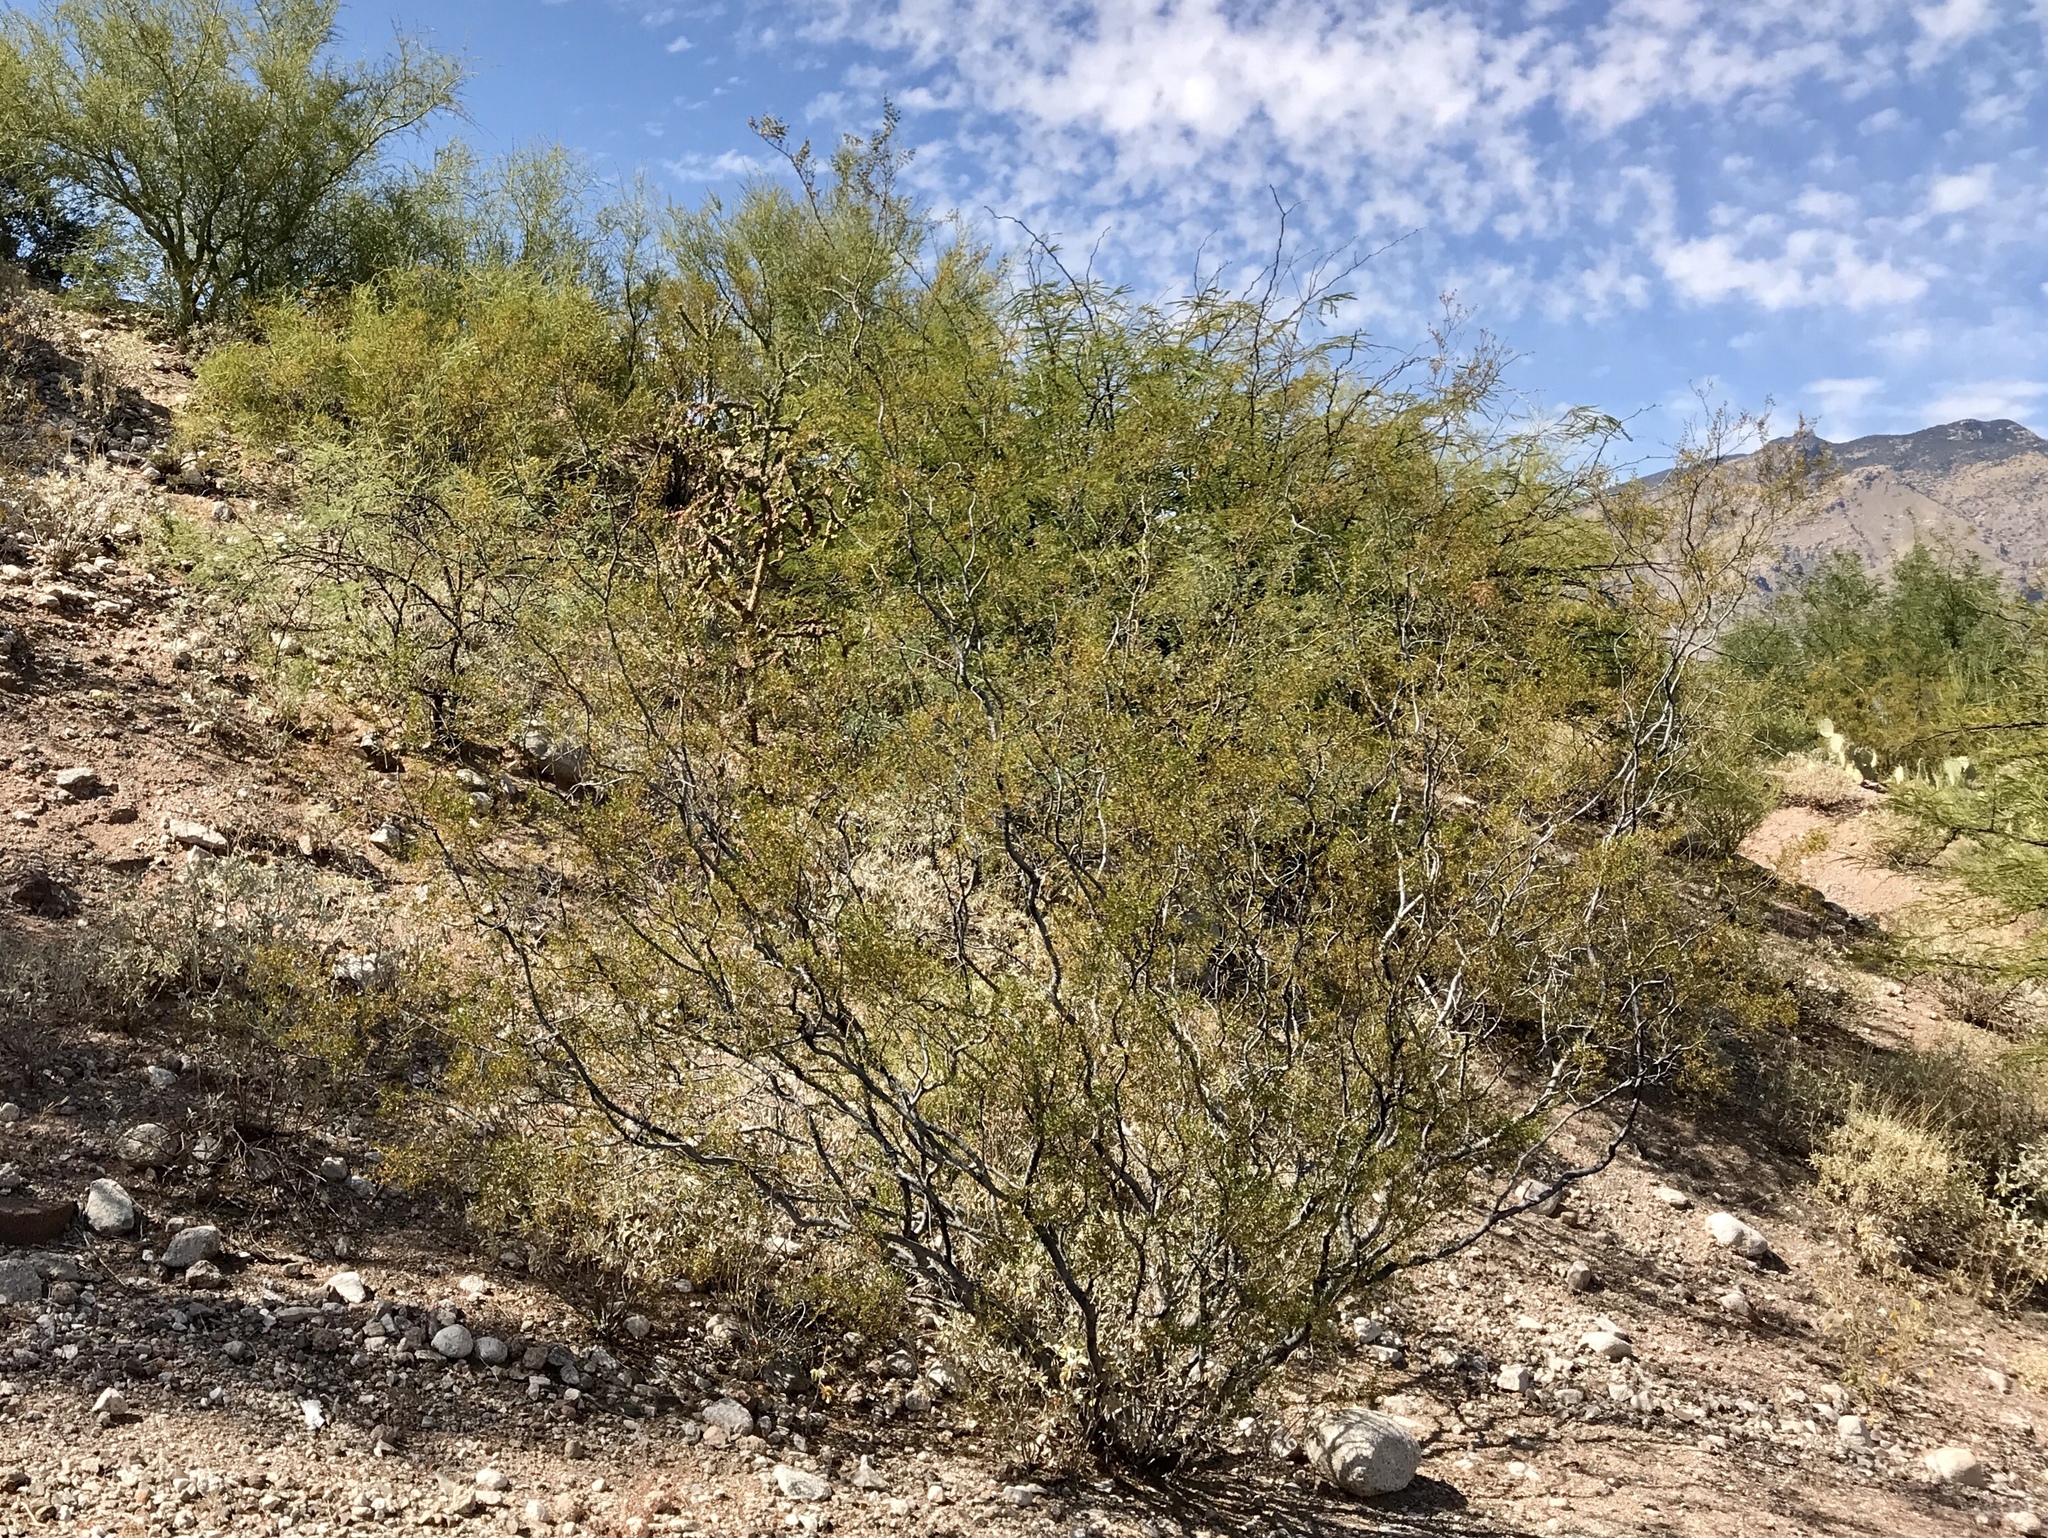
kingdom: Plantae
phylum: Tracheophyta
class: Magnoliopsida
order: Zygophyllales
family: Zygophyllaceae
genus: Larrea
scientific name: Larrea tridentata
